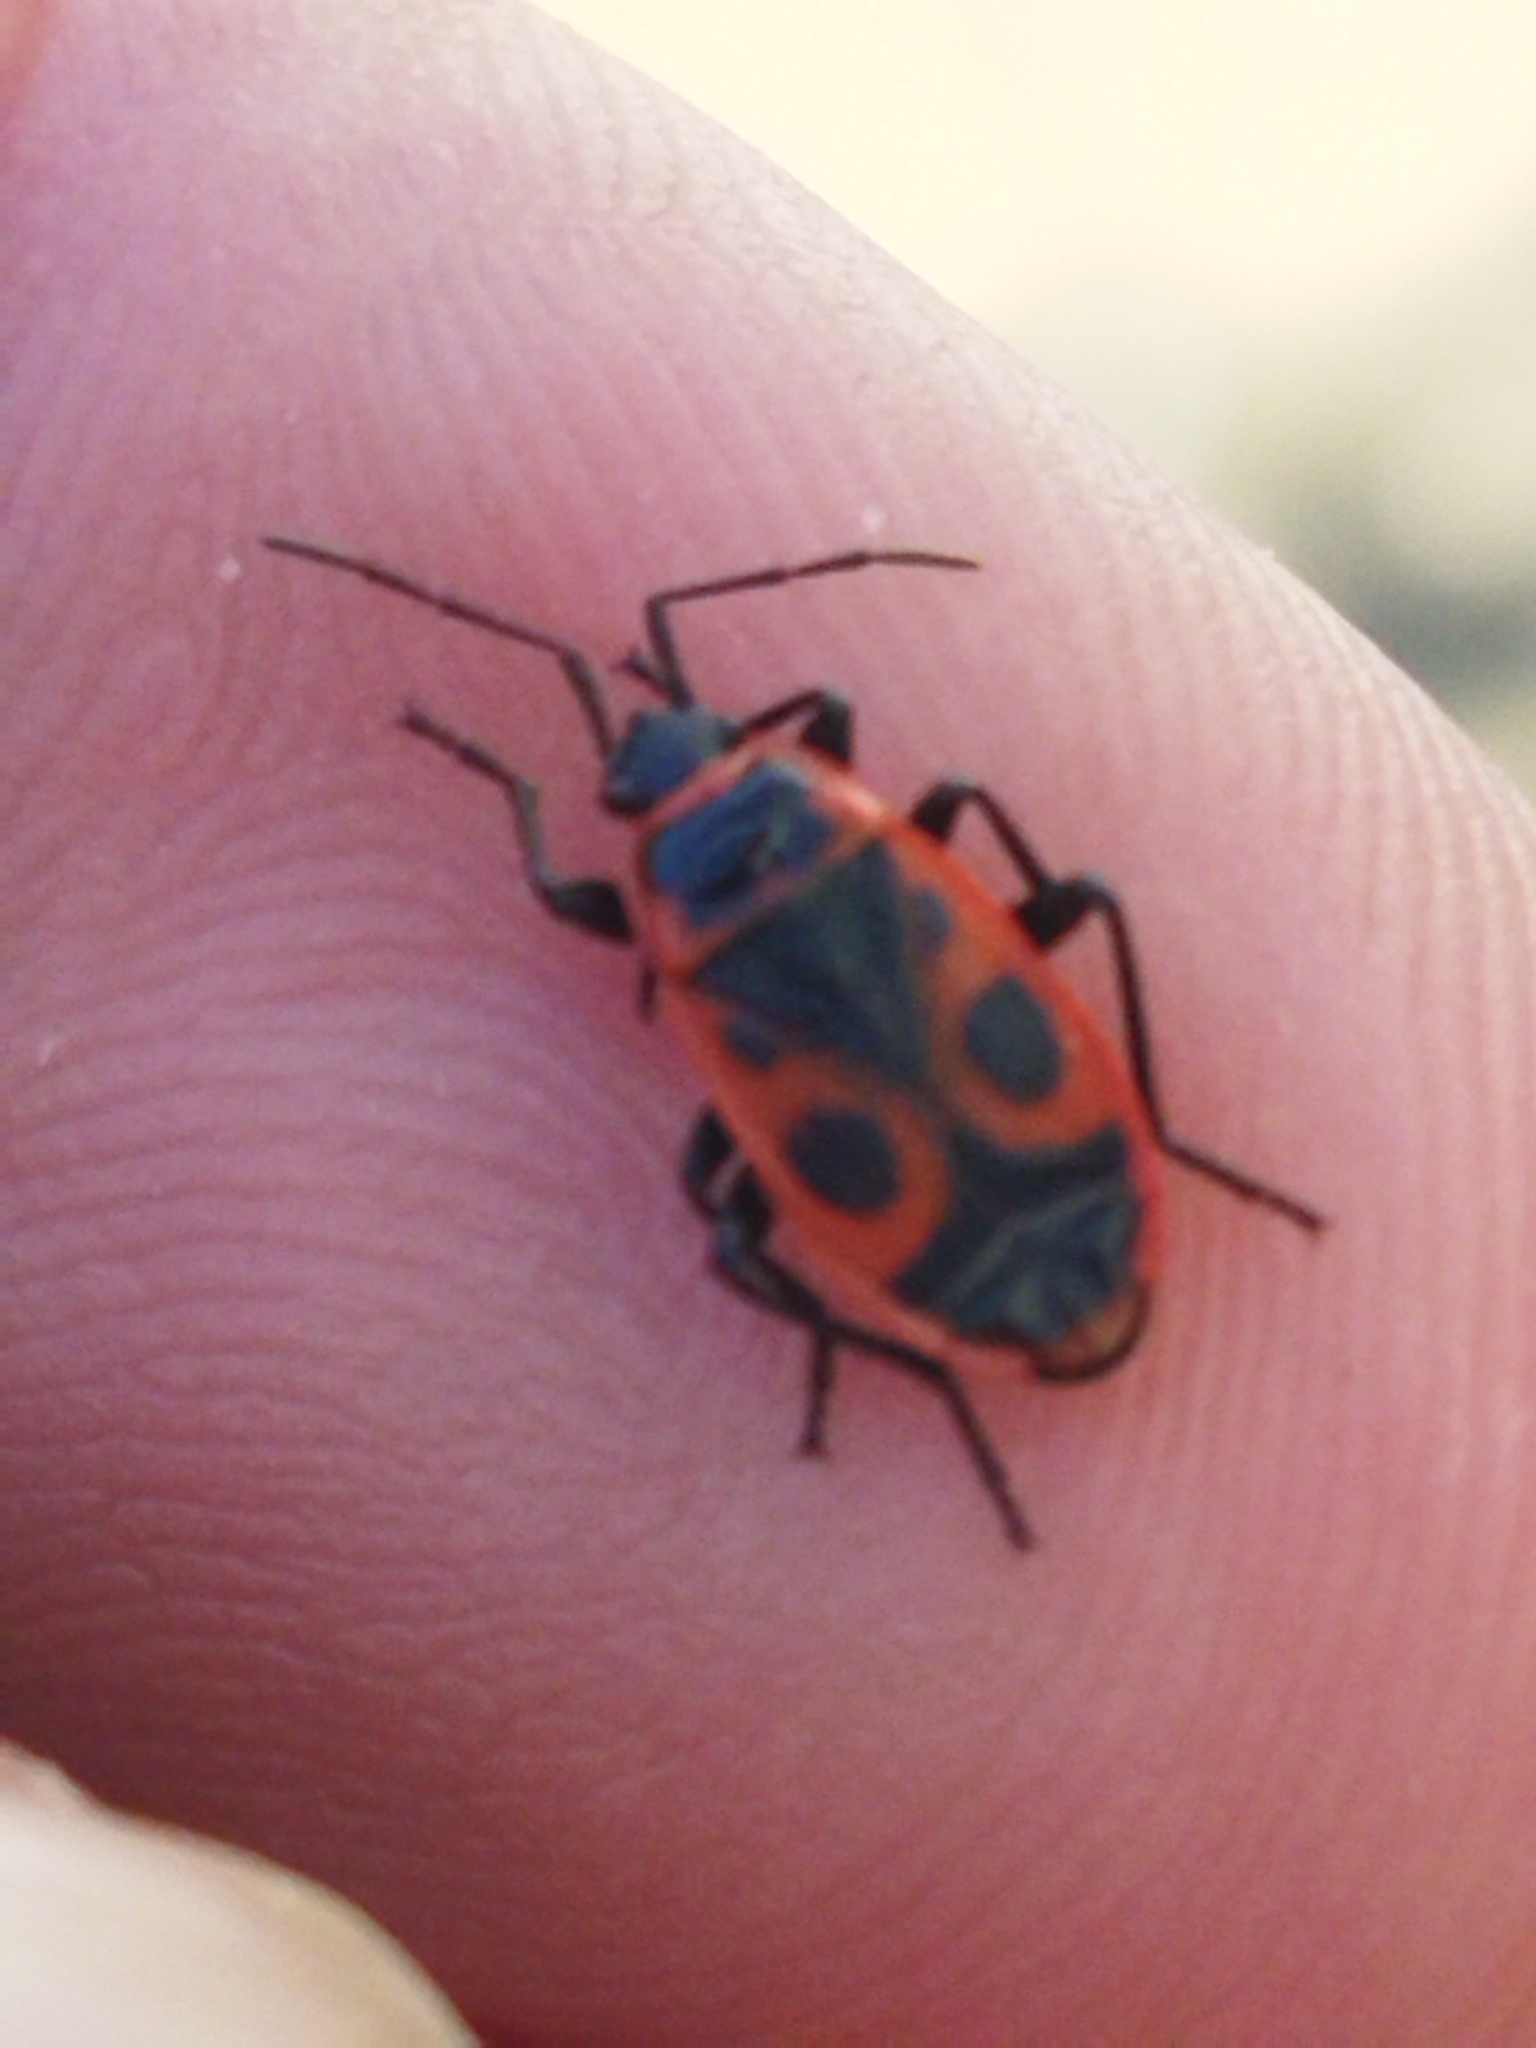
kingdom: Animalia
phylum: Arthropoda
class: Insecta
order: Hemiptera
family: Pyrrhocoridae
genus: Pyrrhocoris
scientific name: Pyrrhocoris apterus
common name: Firebug
